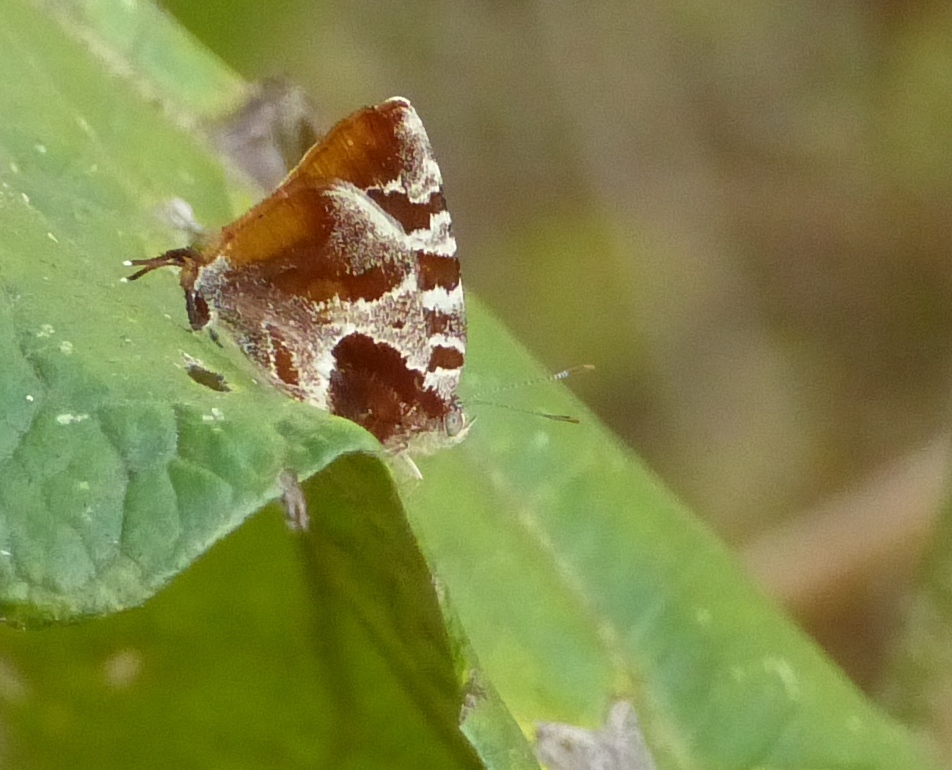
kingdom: Animalia
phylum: Arthropoda
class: Insecta
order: Lepidoptera
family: Lycaenidae
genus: Arawacus
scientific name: Arawacus ellida
